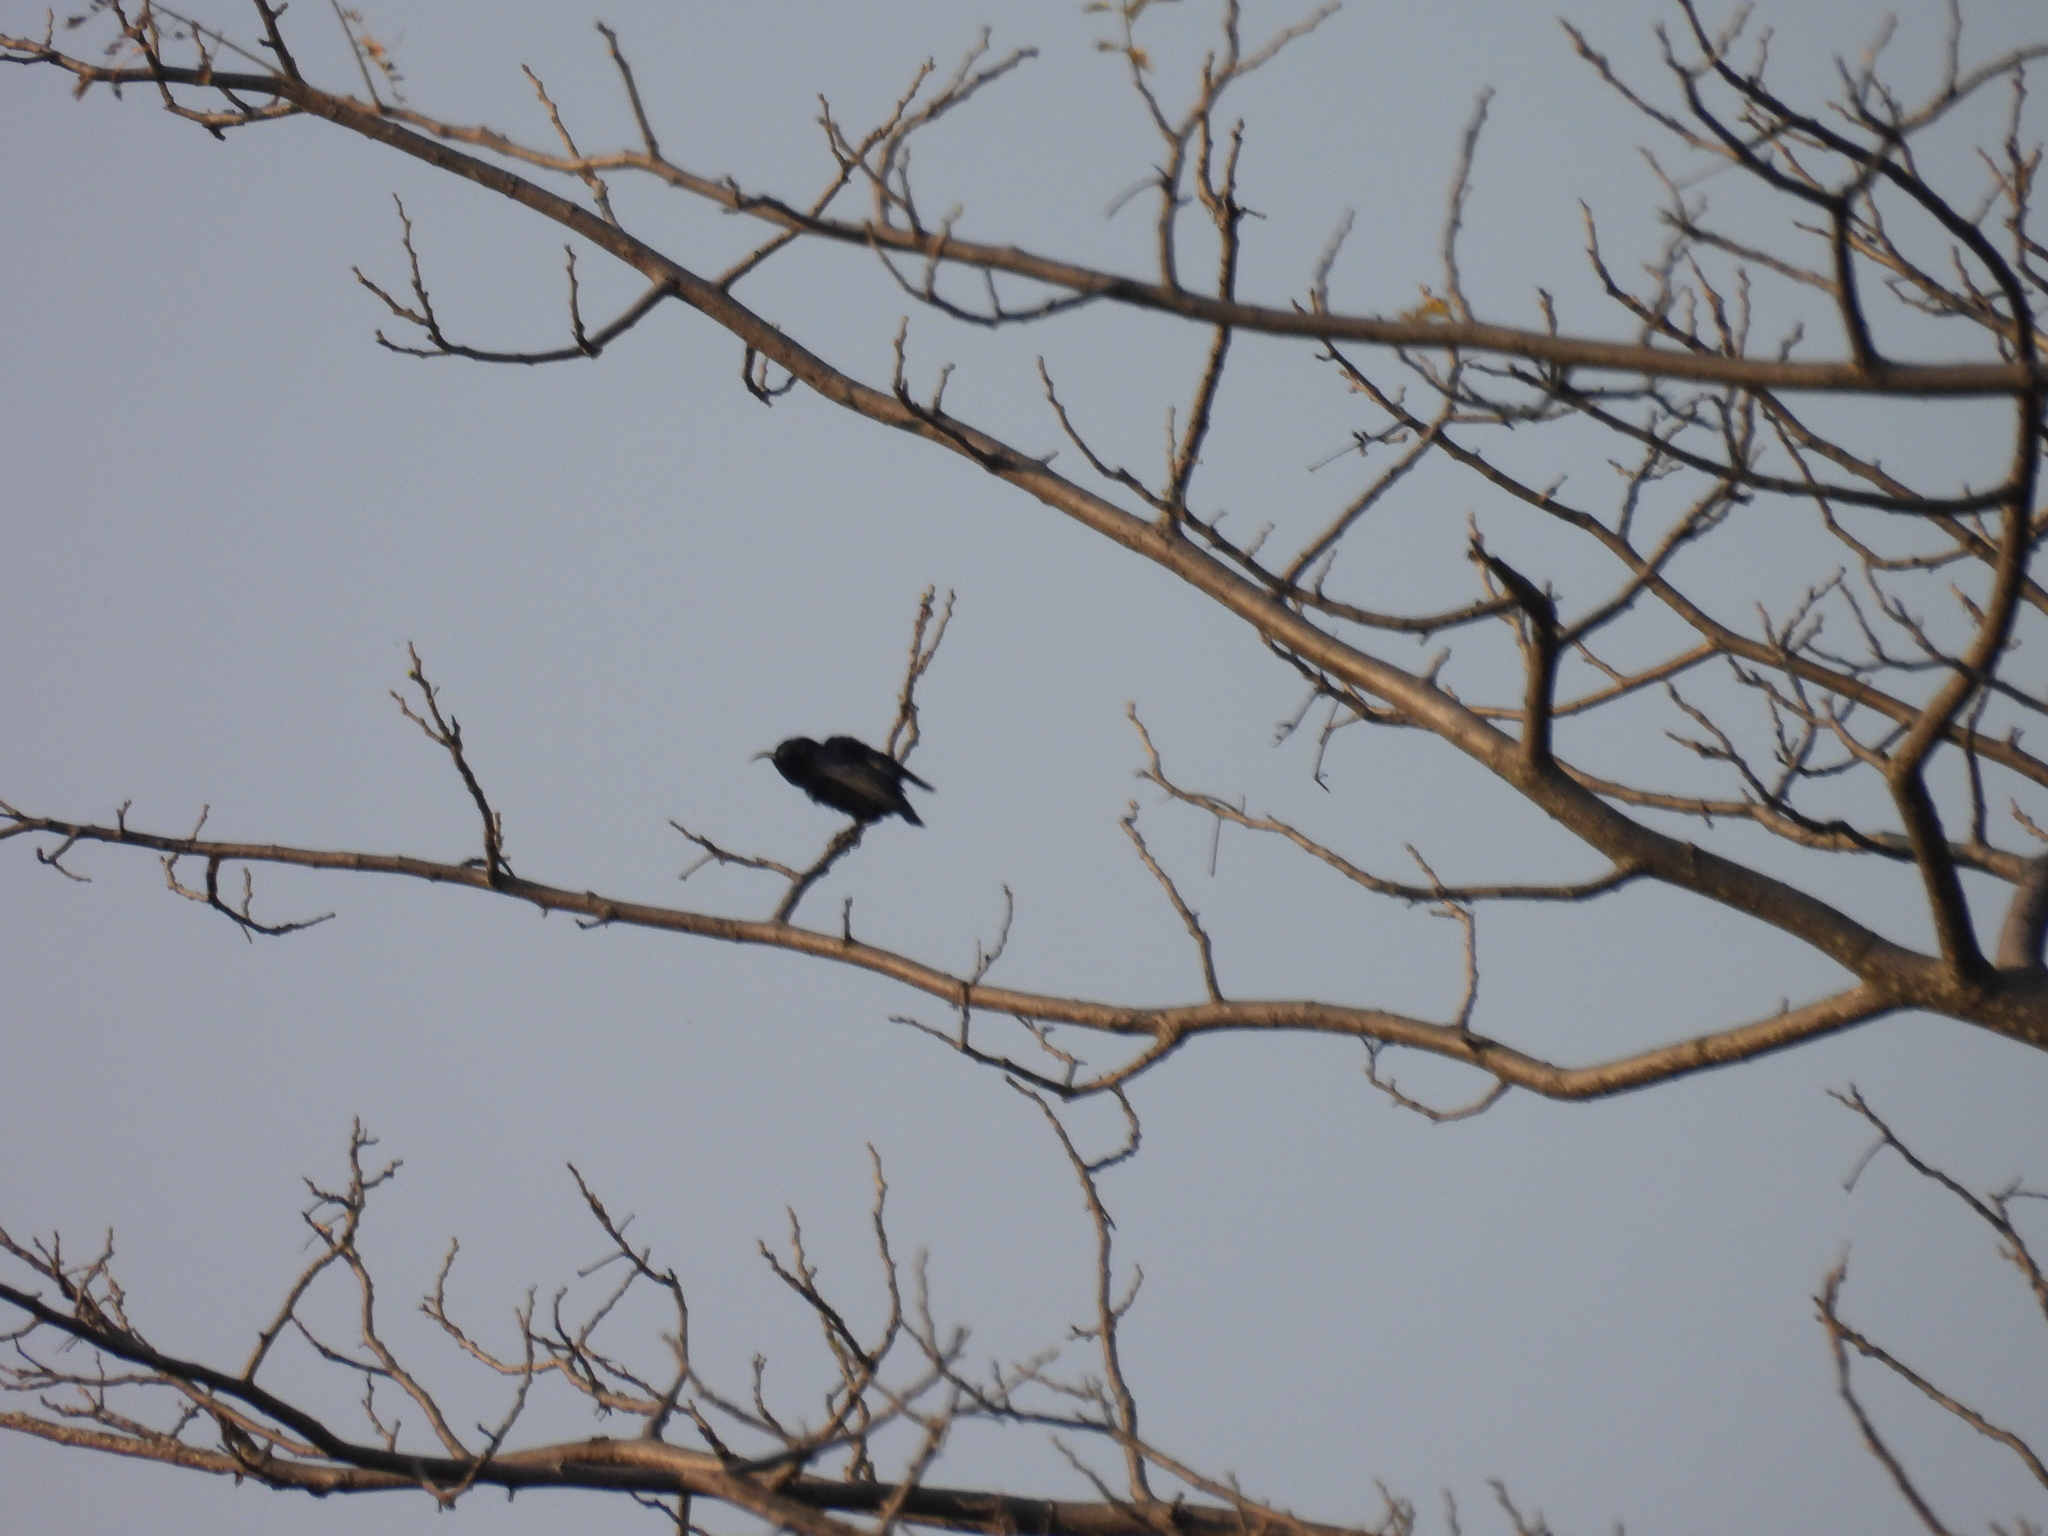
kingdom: Animalia
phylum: Chordata
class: Aves
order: Passeriformes
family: Nectariniidae
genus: Cinnyris
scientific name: Cinnyris asiaticus
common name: Purple sunbird
